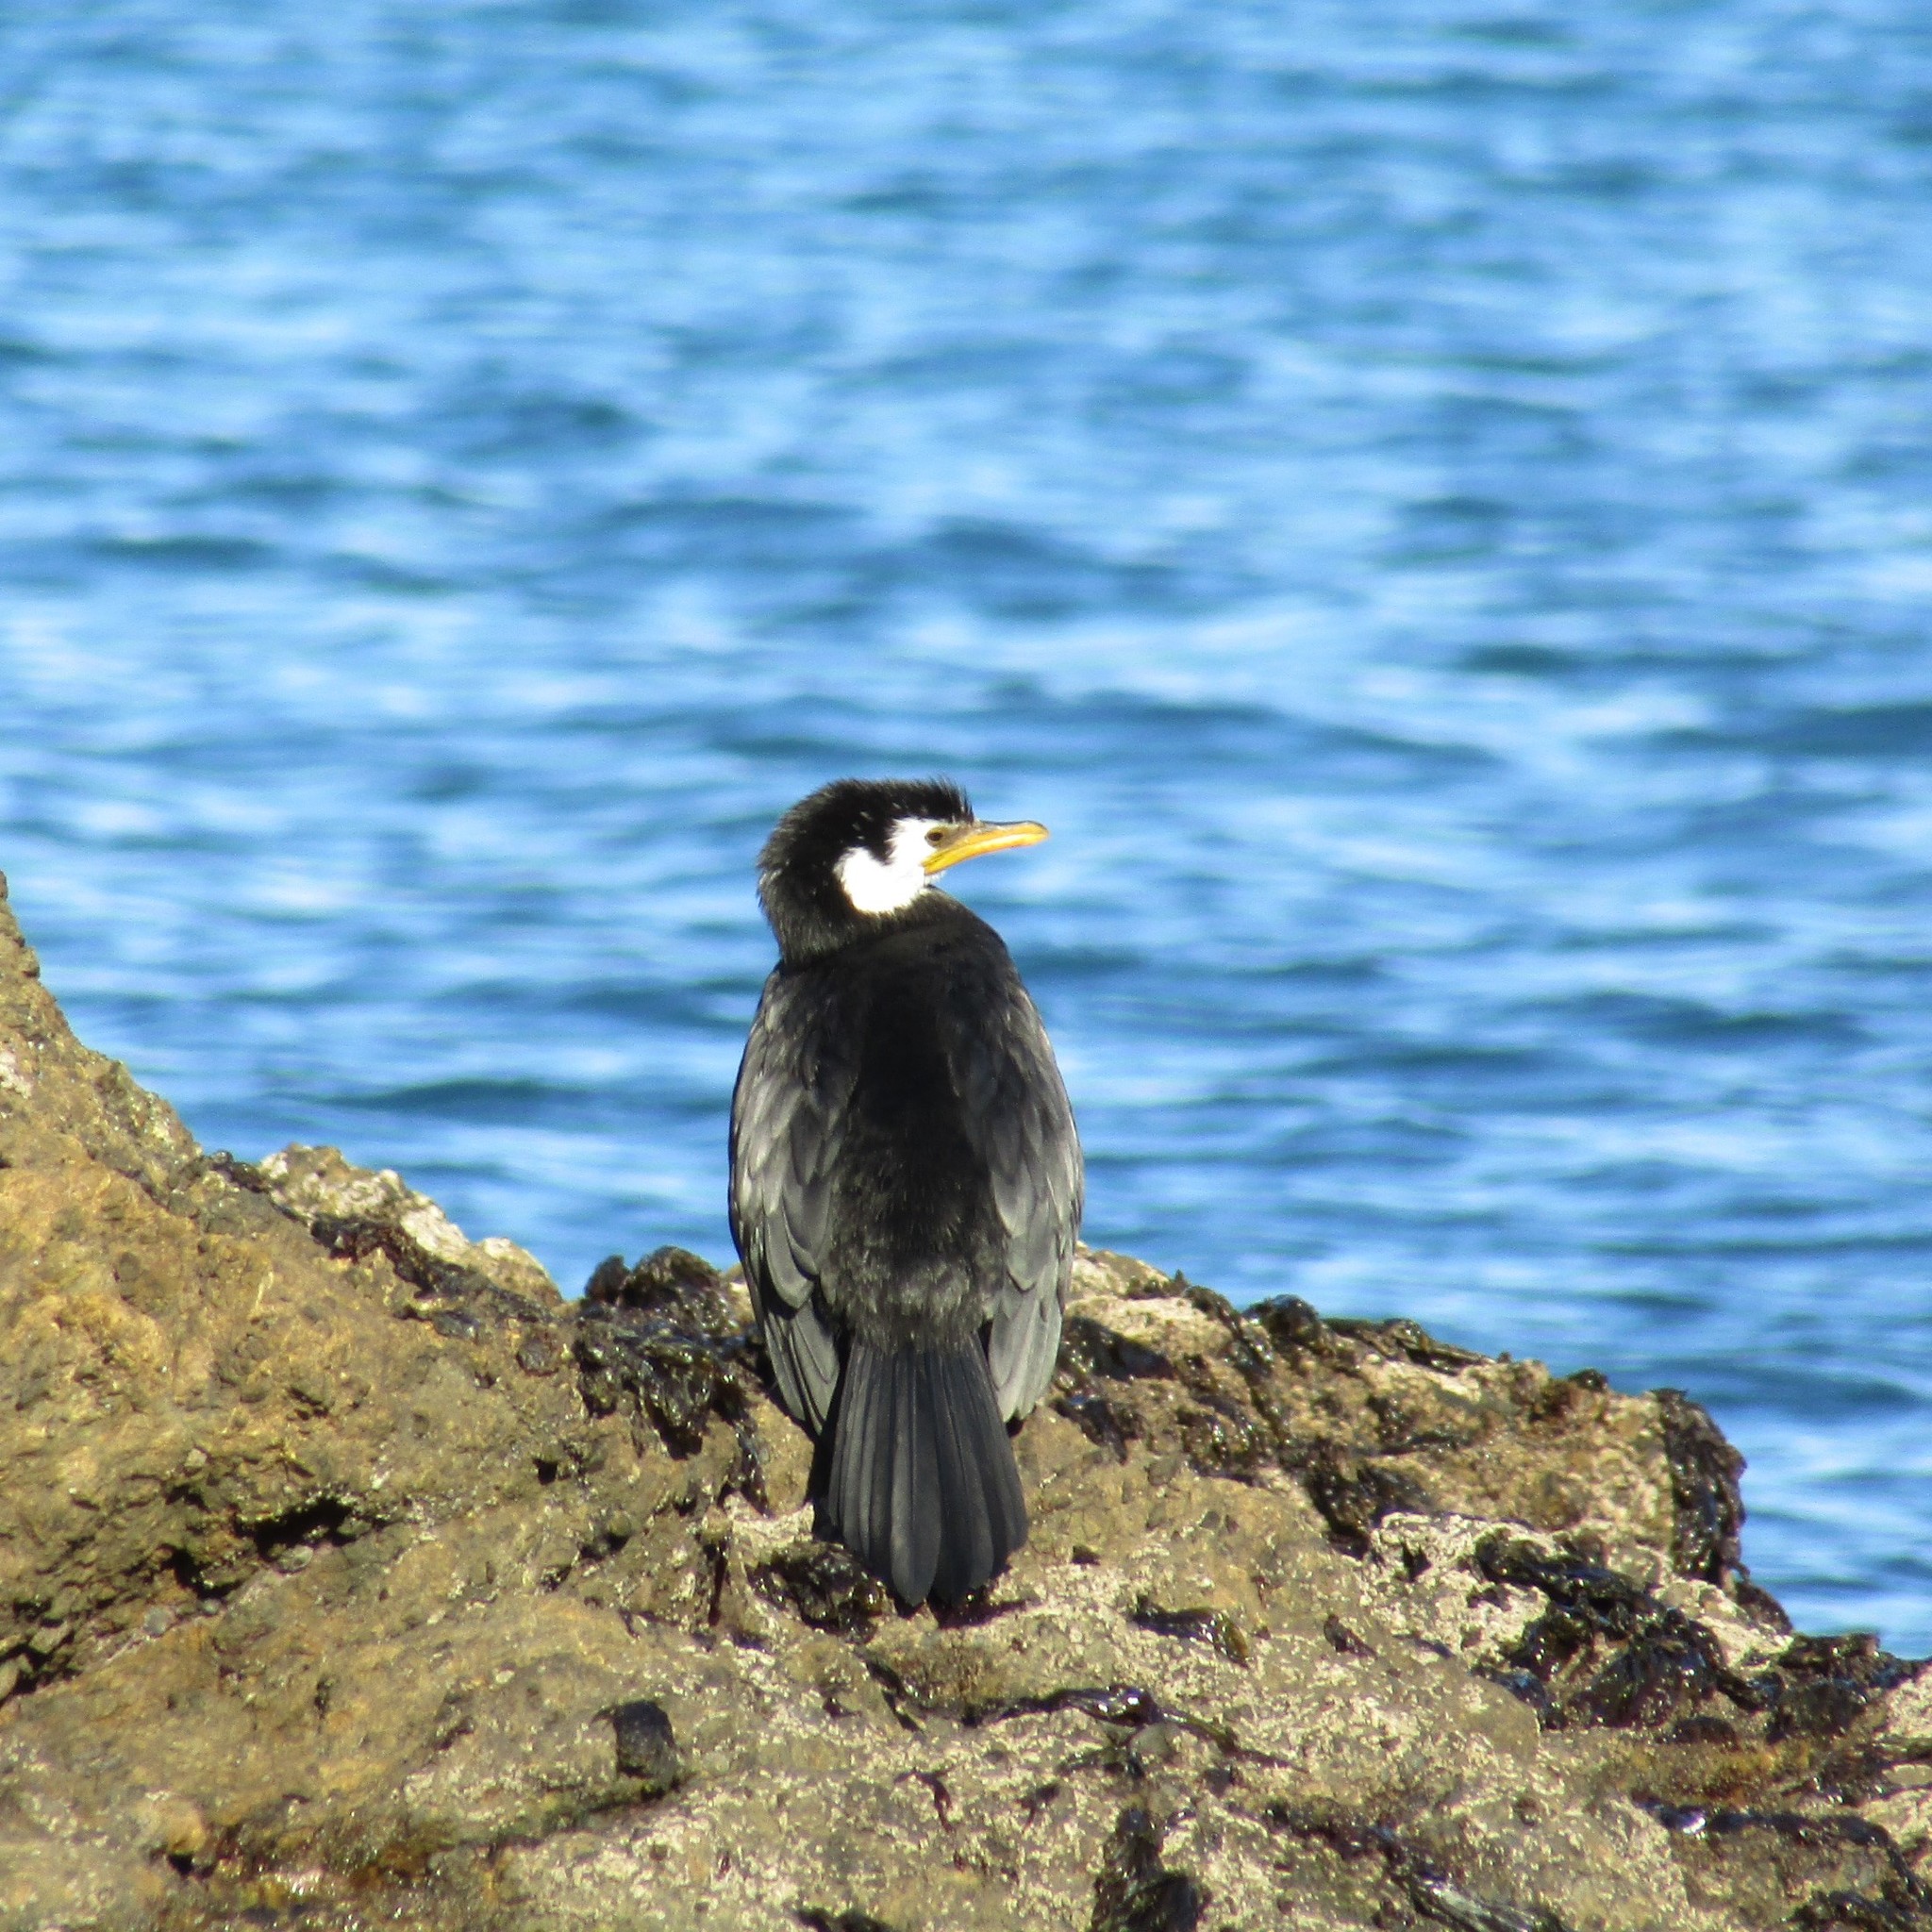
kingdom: Animalia
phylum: Chordata
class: Aves
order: Suliformes
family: Phalacrocoracidae
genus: Microcarbo
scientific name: Microcarbo melanoleucos
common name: Little pied cormorant
